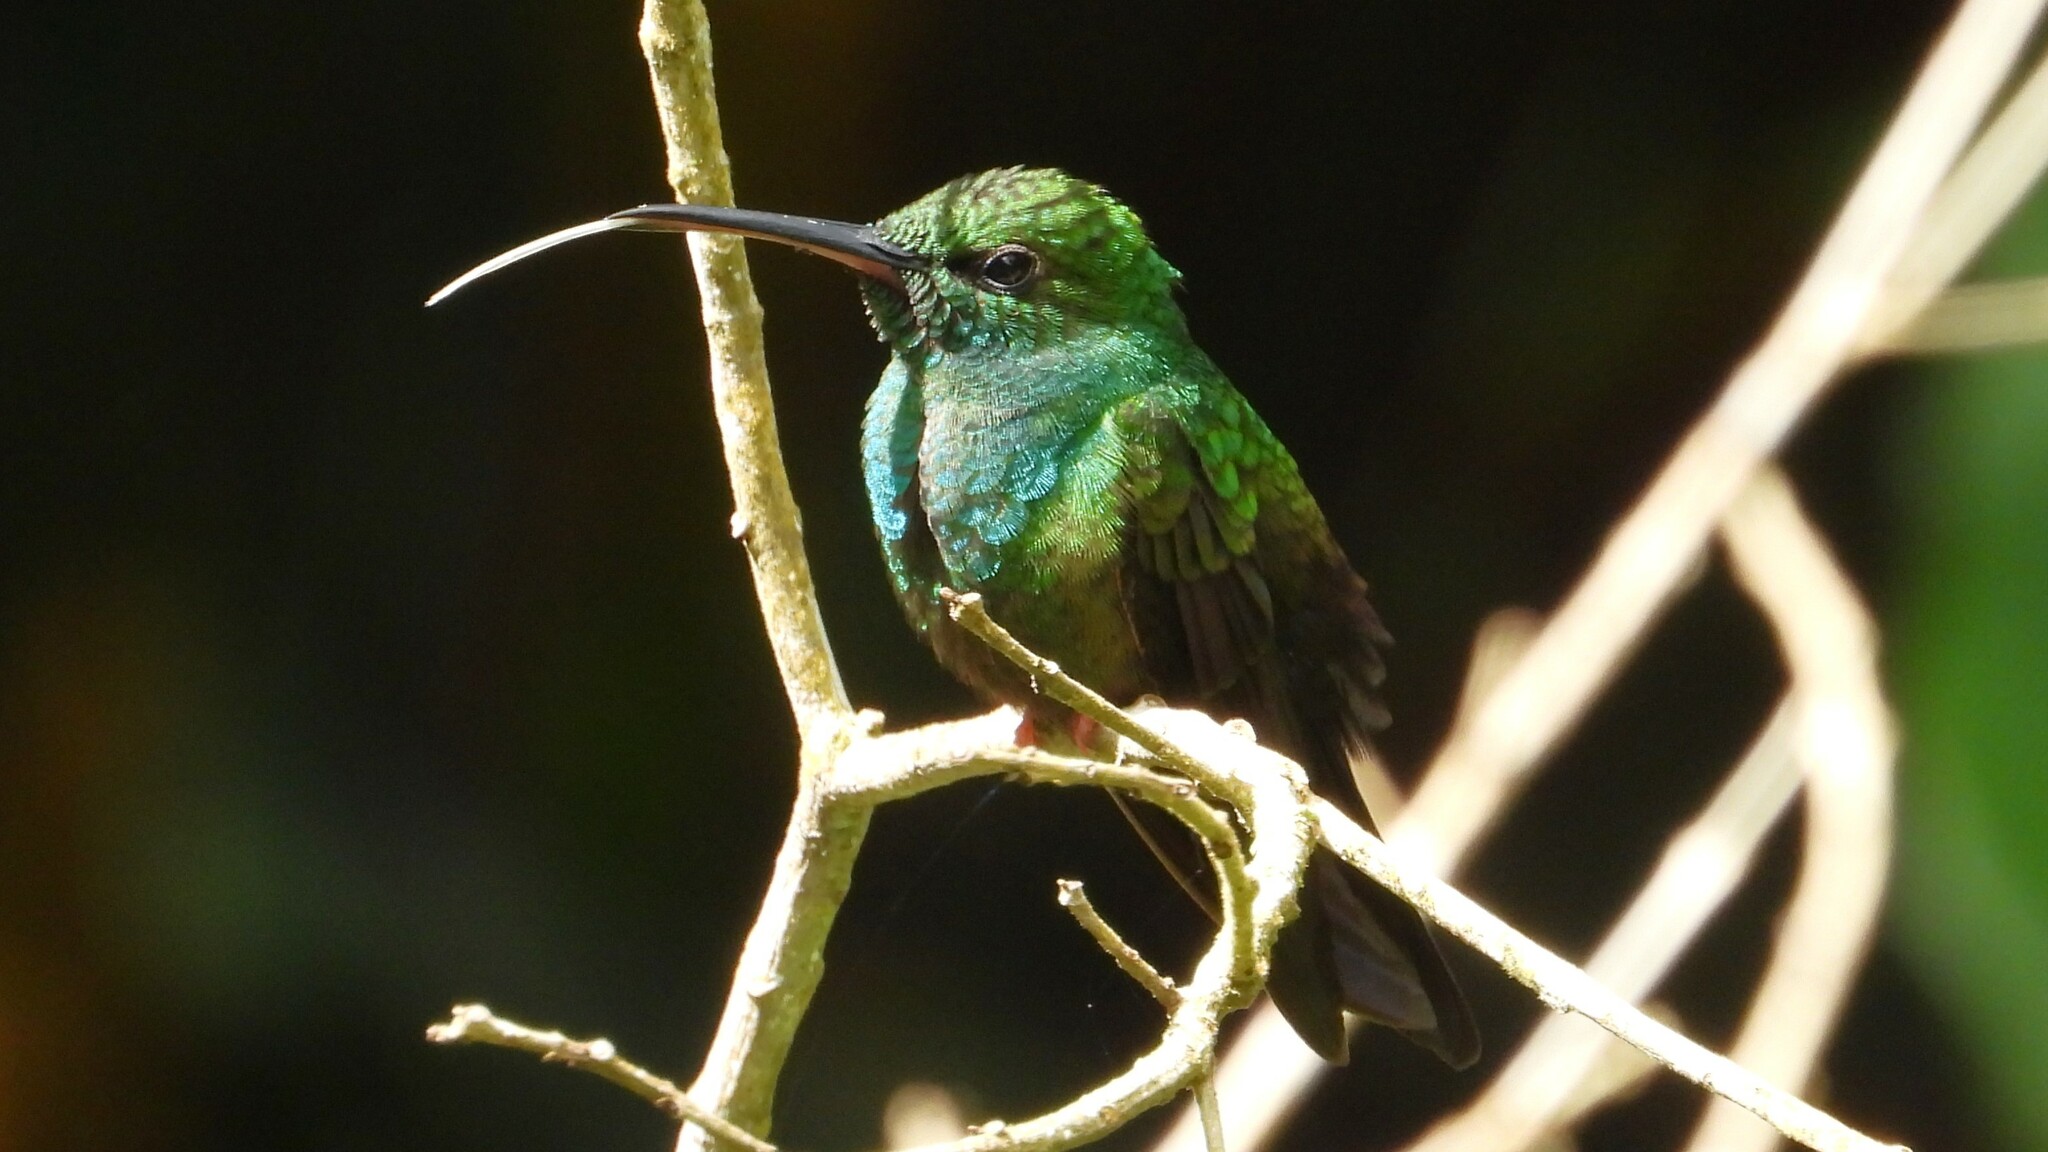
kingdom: Animalia
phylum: Chordata
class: Aves
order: Apodiformes
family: Trochilidae
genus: Chalybura
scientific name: Chalybura urochrysia
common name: Bronze-tailed plumeleteer
